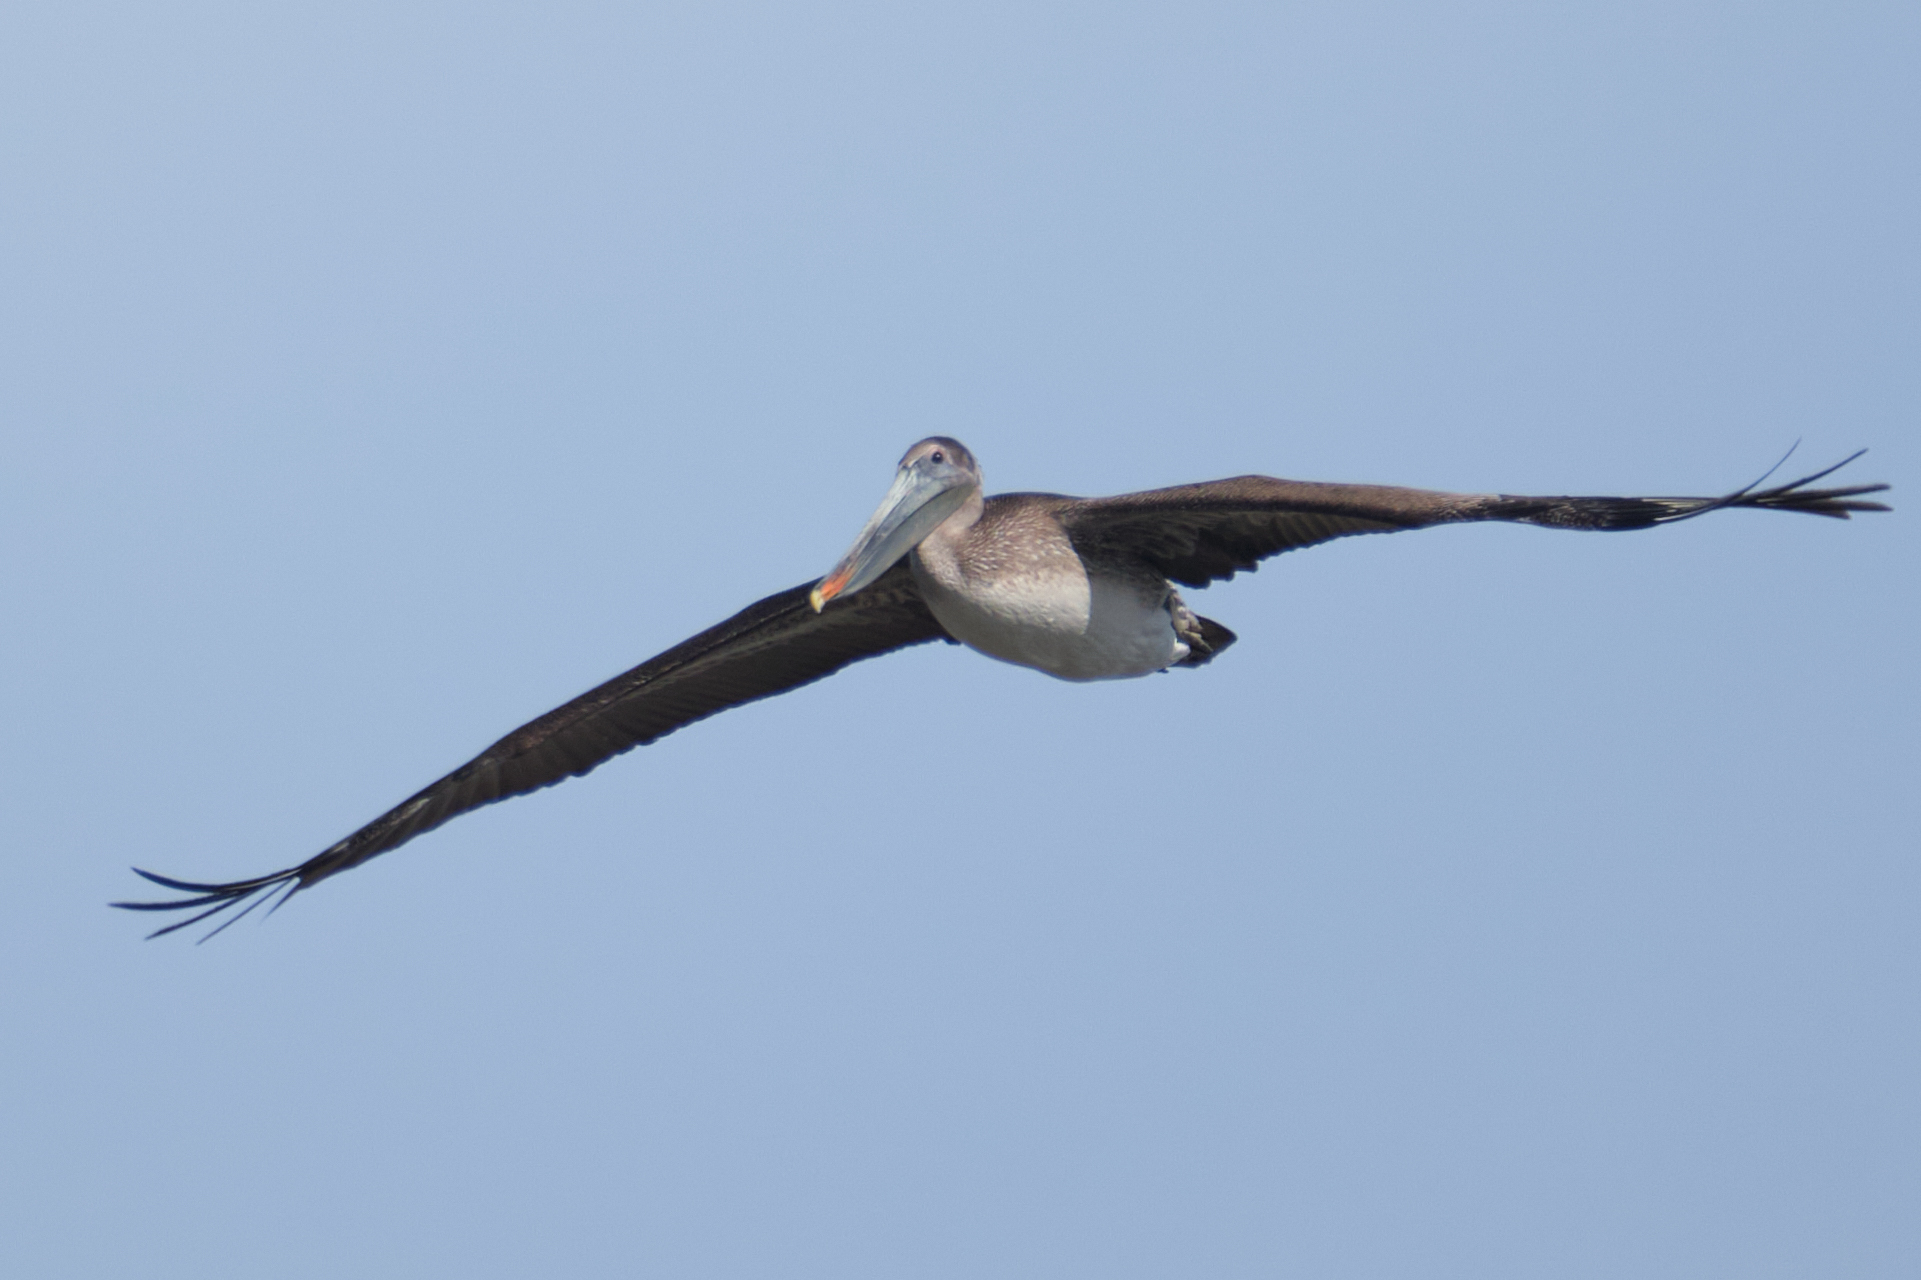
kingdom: Animalia
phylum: Chordata
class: Aves
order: Pelecaniformes
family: Pelecanidae
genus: Pelecanus
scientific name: Pelecanus occidentalis
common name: Brown pelican
